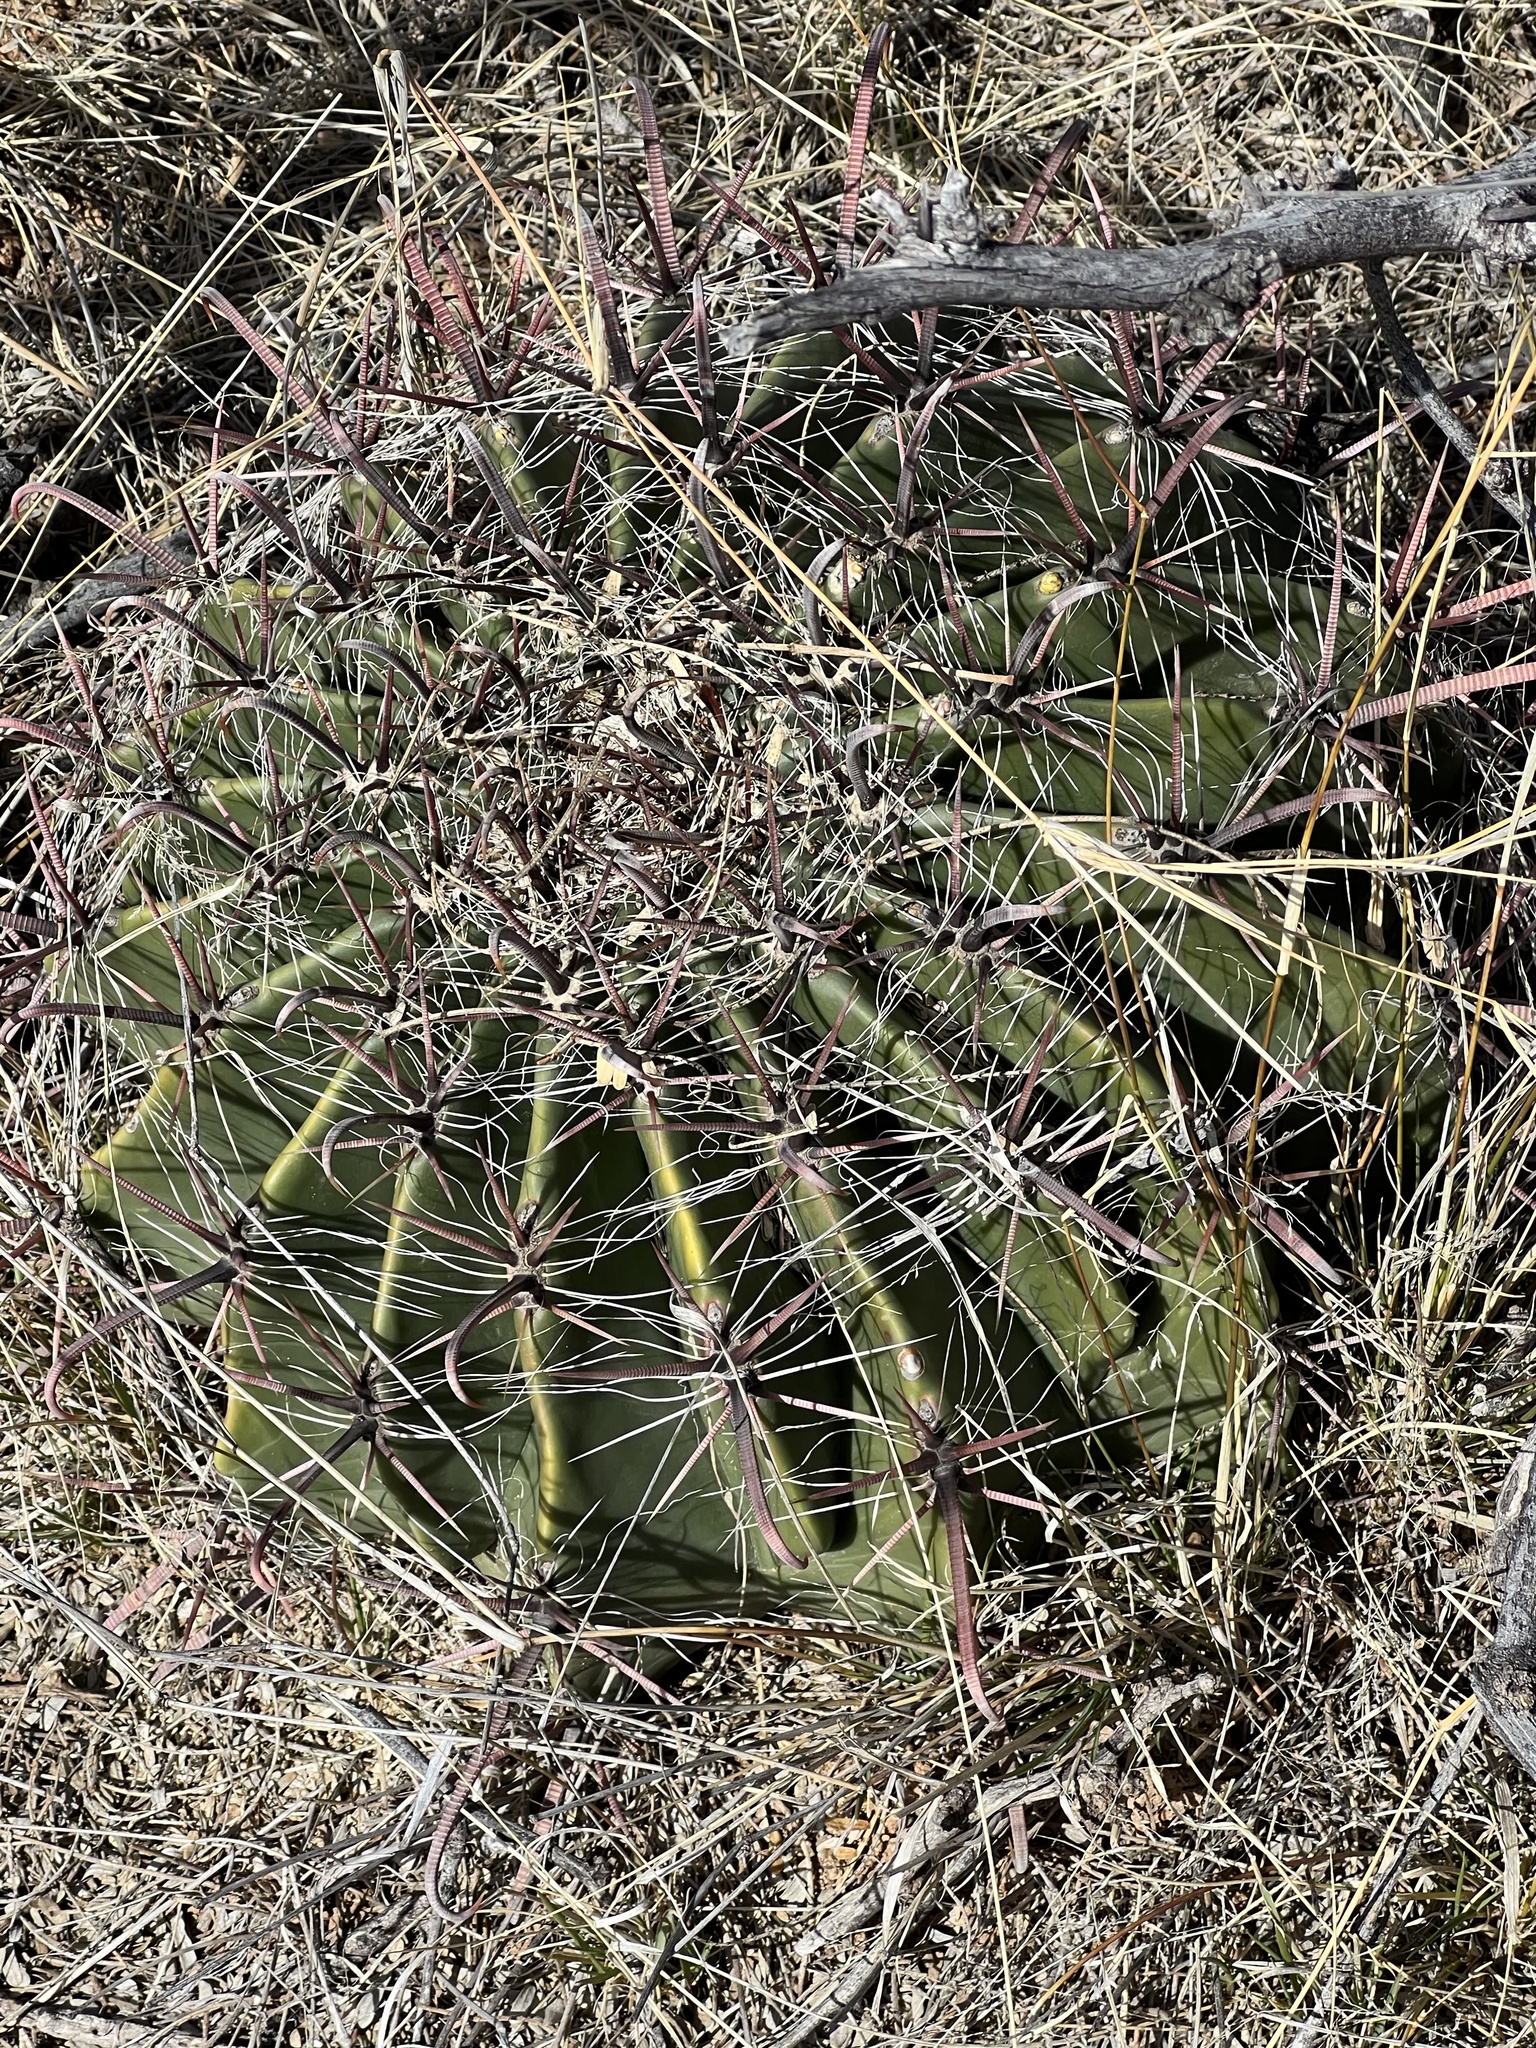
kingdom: Plantae
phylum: Tracheophyta
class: Magnoliopsida
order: Caryophyllales
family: Cactaceae
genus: Ferocactus
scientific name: Ferocactus wislizeni
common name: Candy barrel cactus
